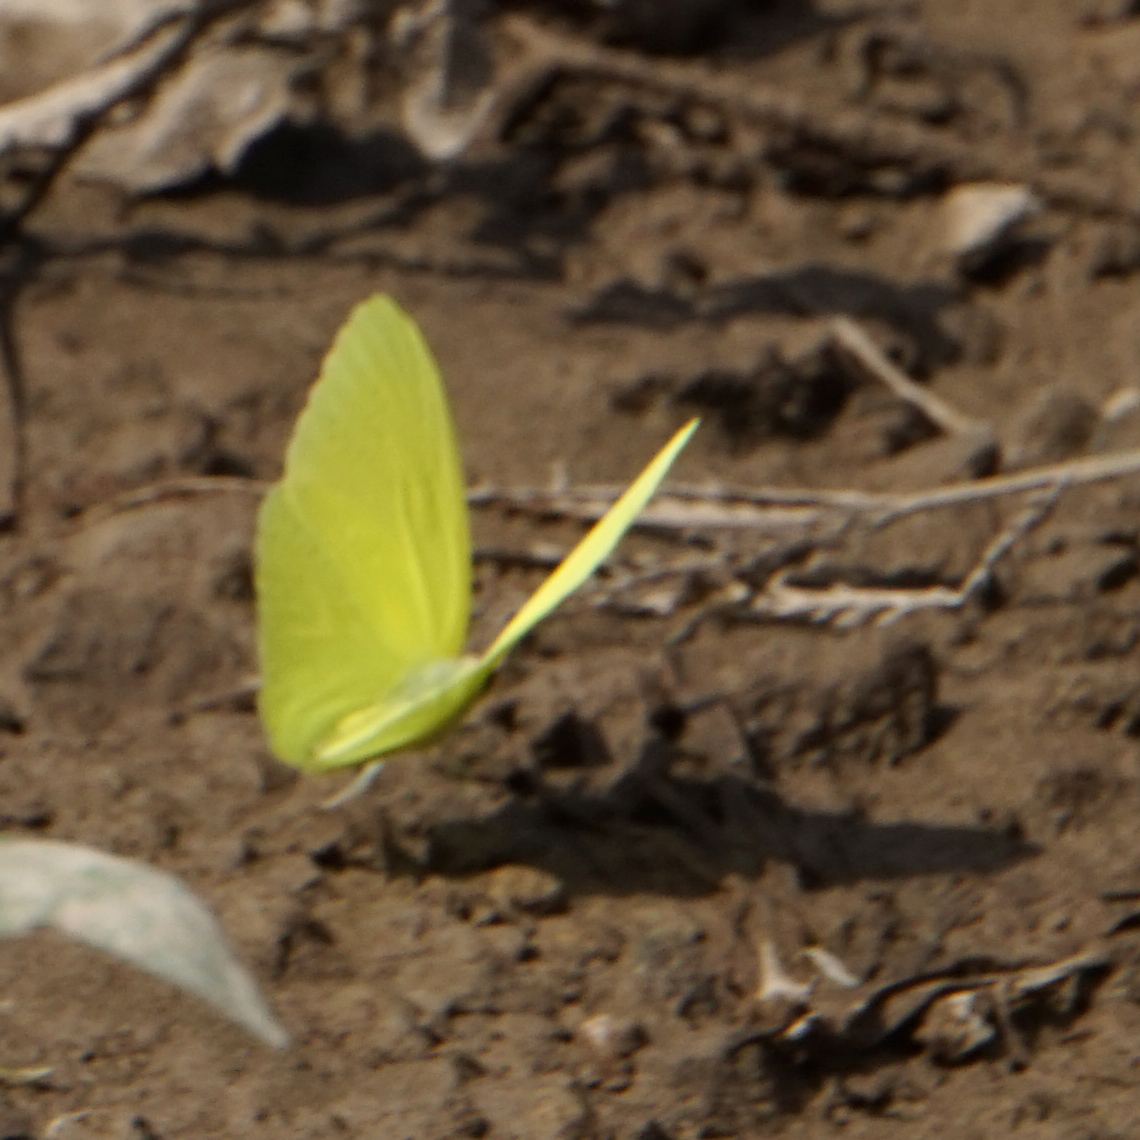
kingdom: Animalia
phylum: Arthropoda
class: Insecta
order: Lepidoptera
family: Pieridae
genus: Phoebis
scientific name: Phoebis sennae
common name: Cloudless sulphur
